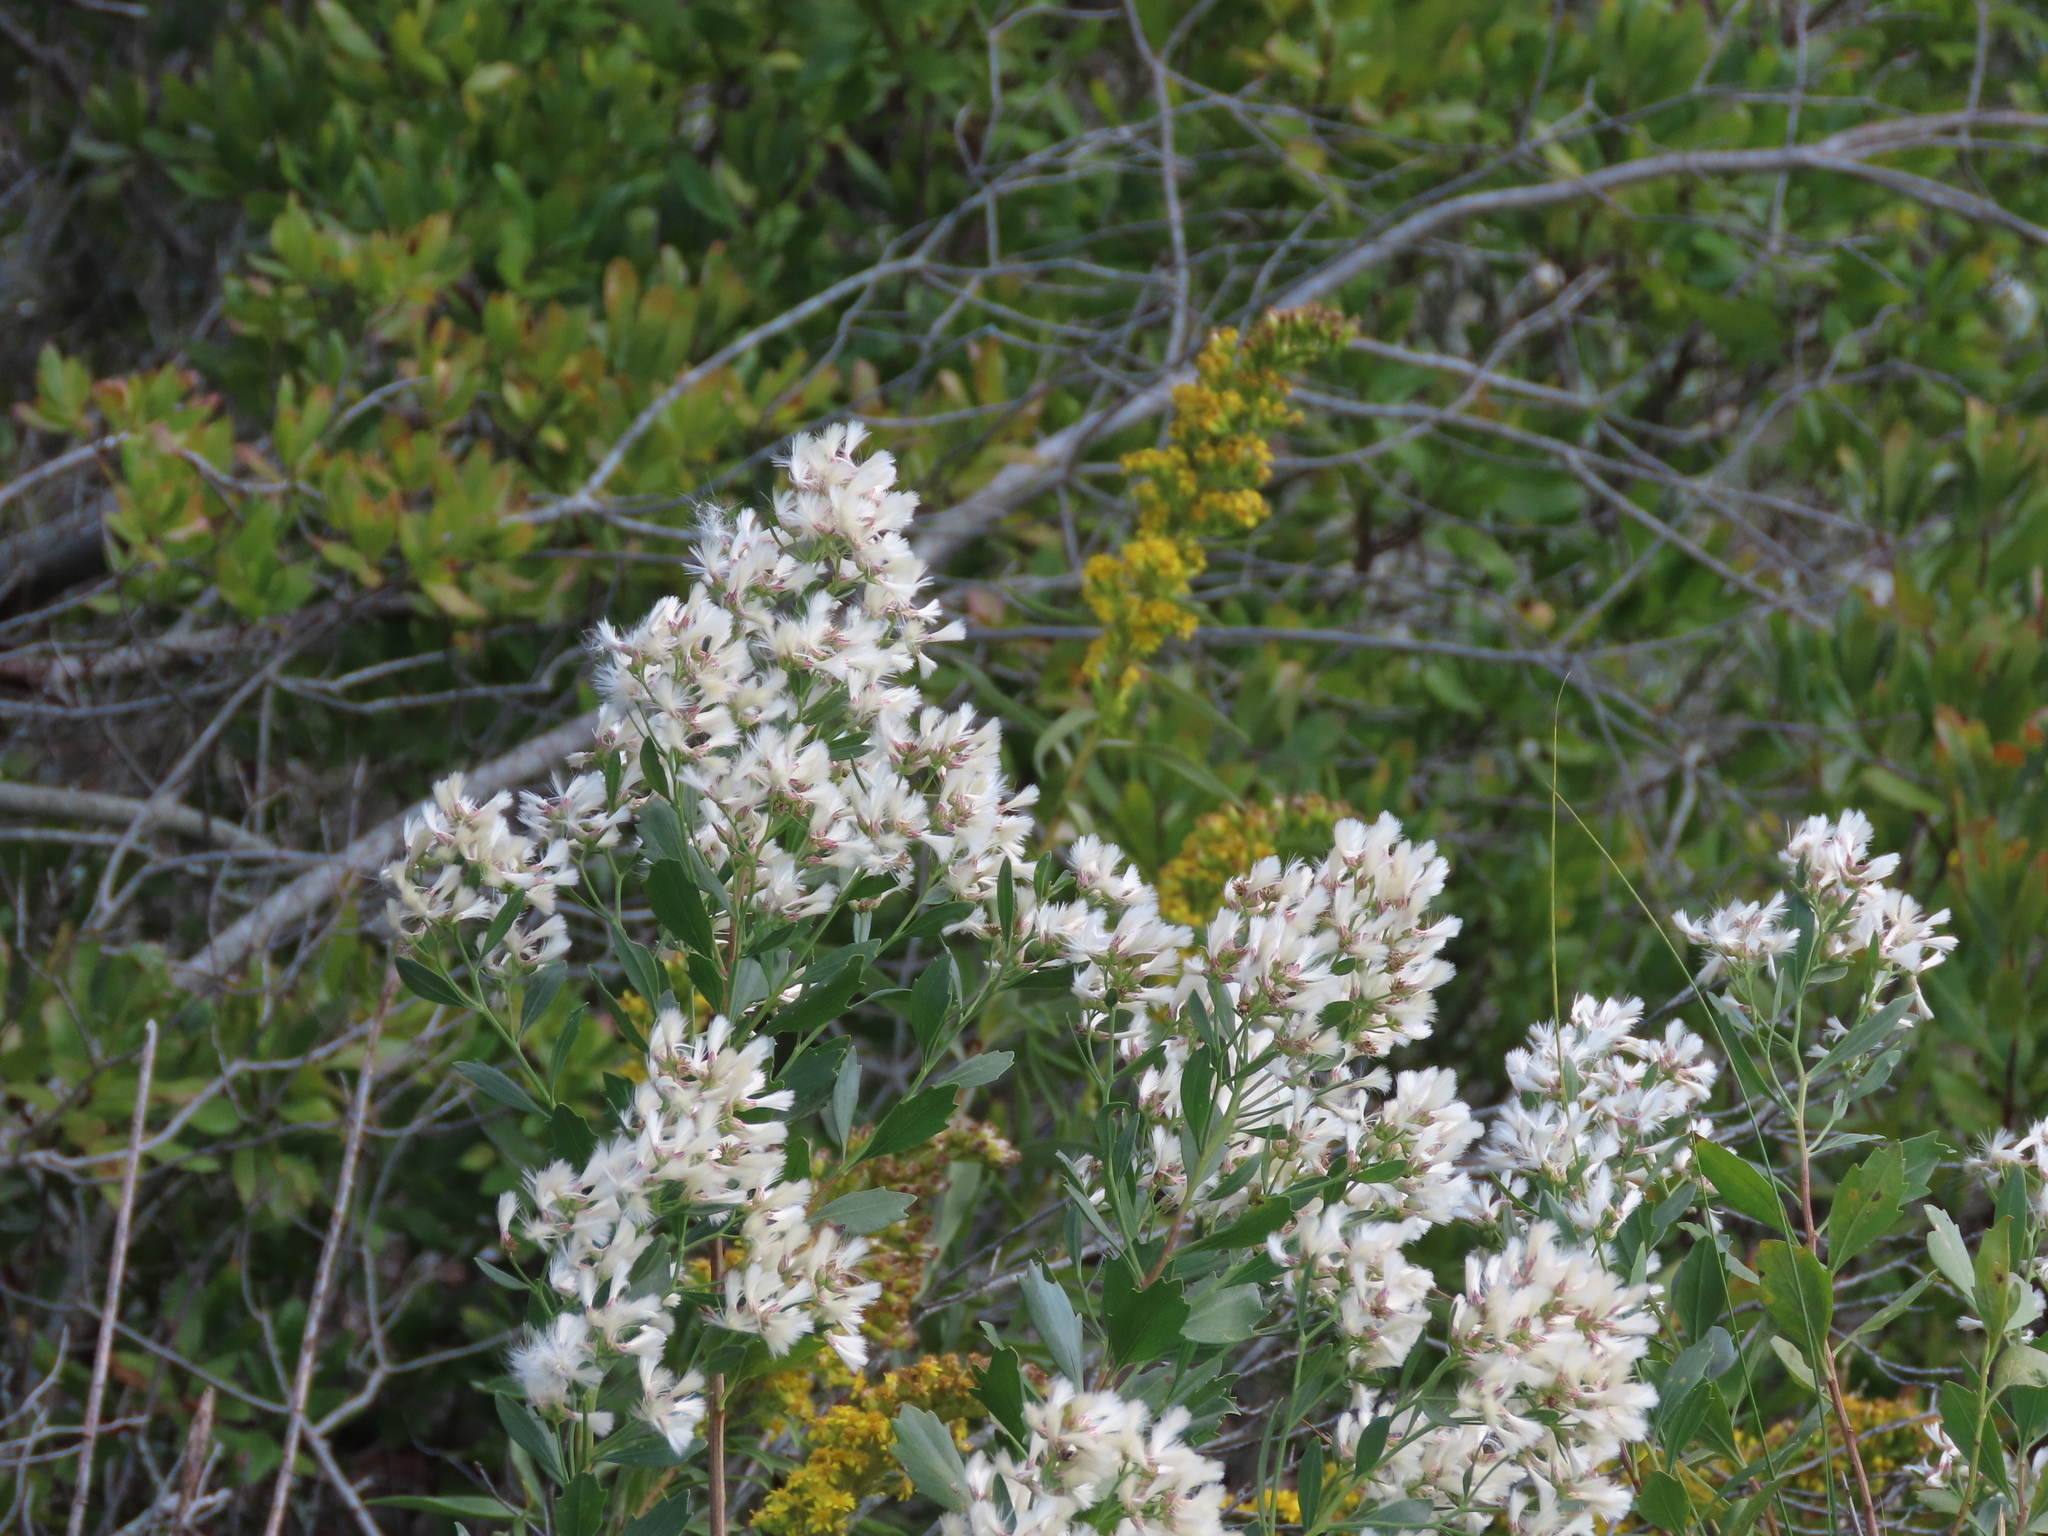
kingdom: Plantae
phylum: Tracheophyta
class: Magnoliopsida
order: Asterales
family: Asteraceae
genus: Baccharis
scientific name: Baccharis halimifolia
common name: Eastern baccharis
